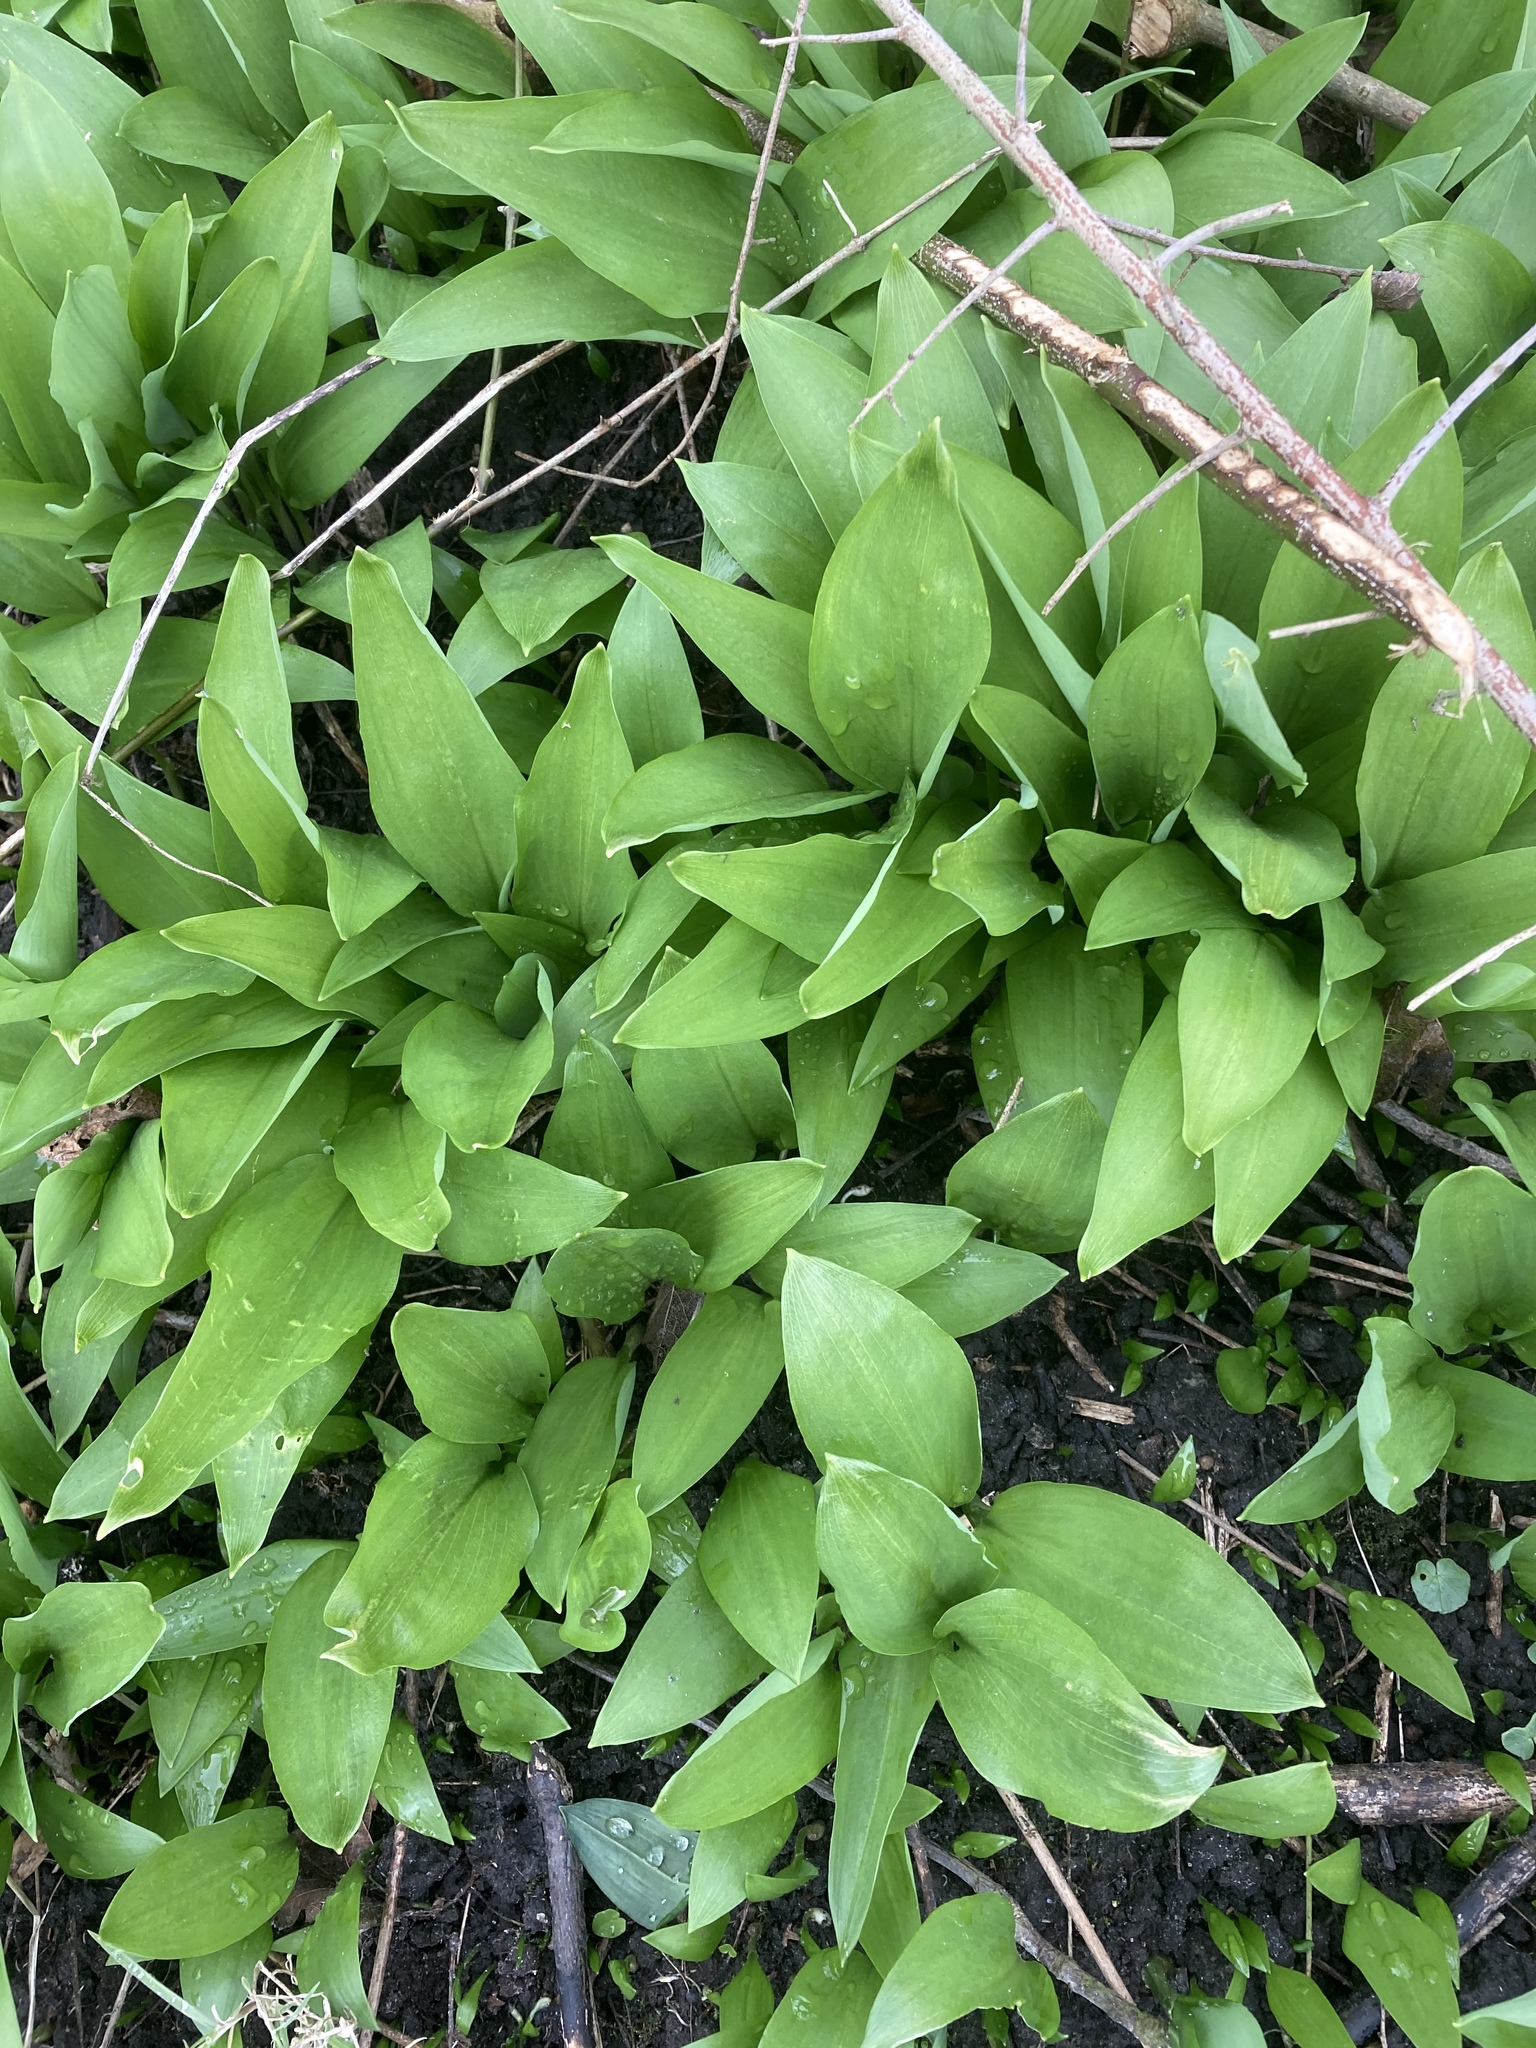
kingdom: Plantae
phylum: Tracheophyta
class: Liliopsida
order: Asparagales
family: Amaryllidaceae
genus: Allium
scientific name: Allium ursinum
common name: Ramsons
